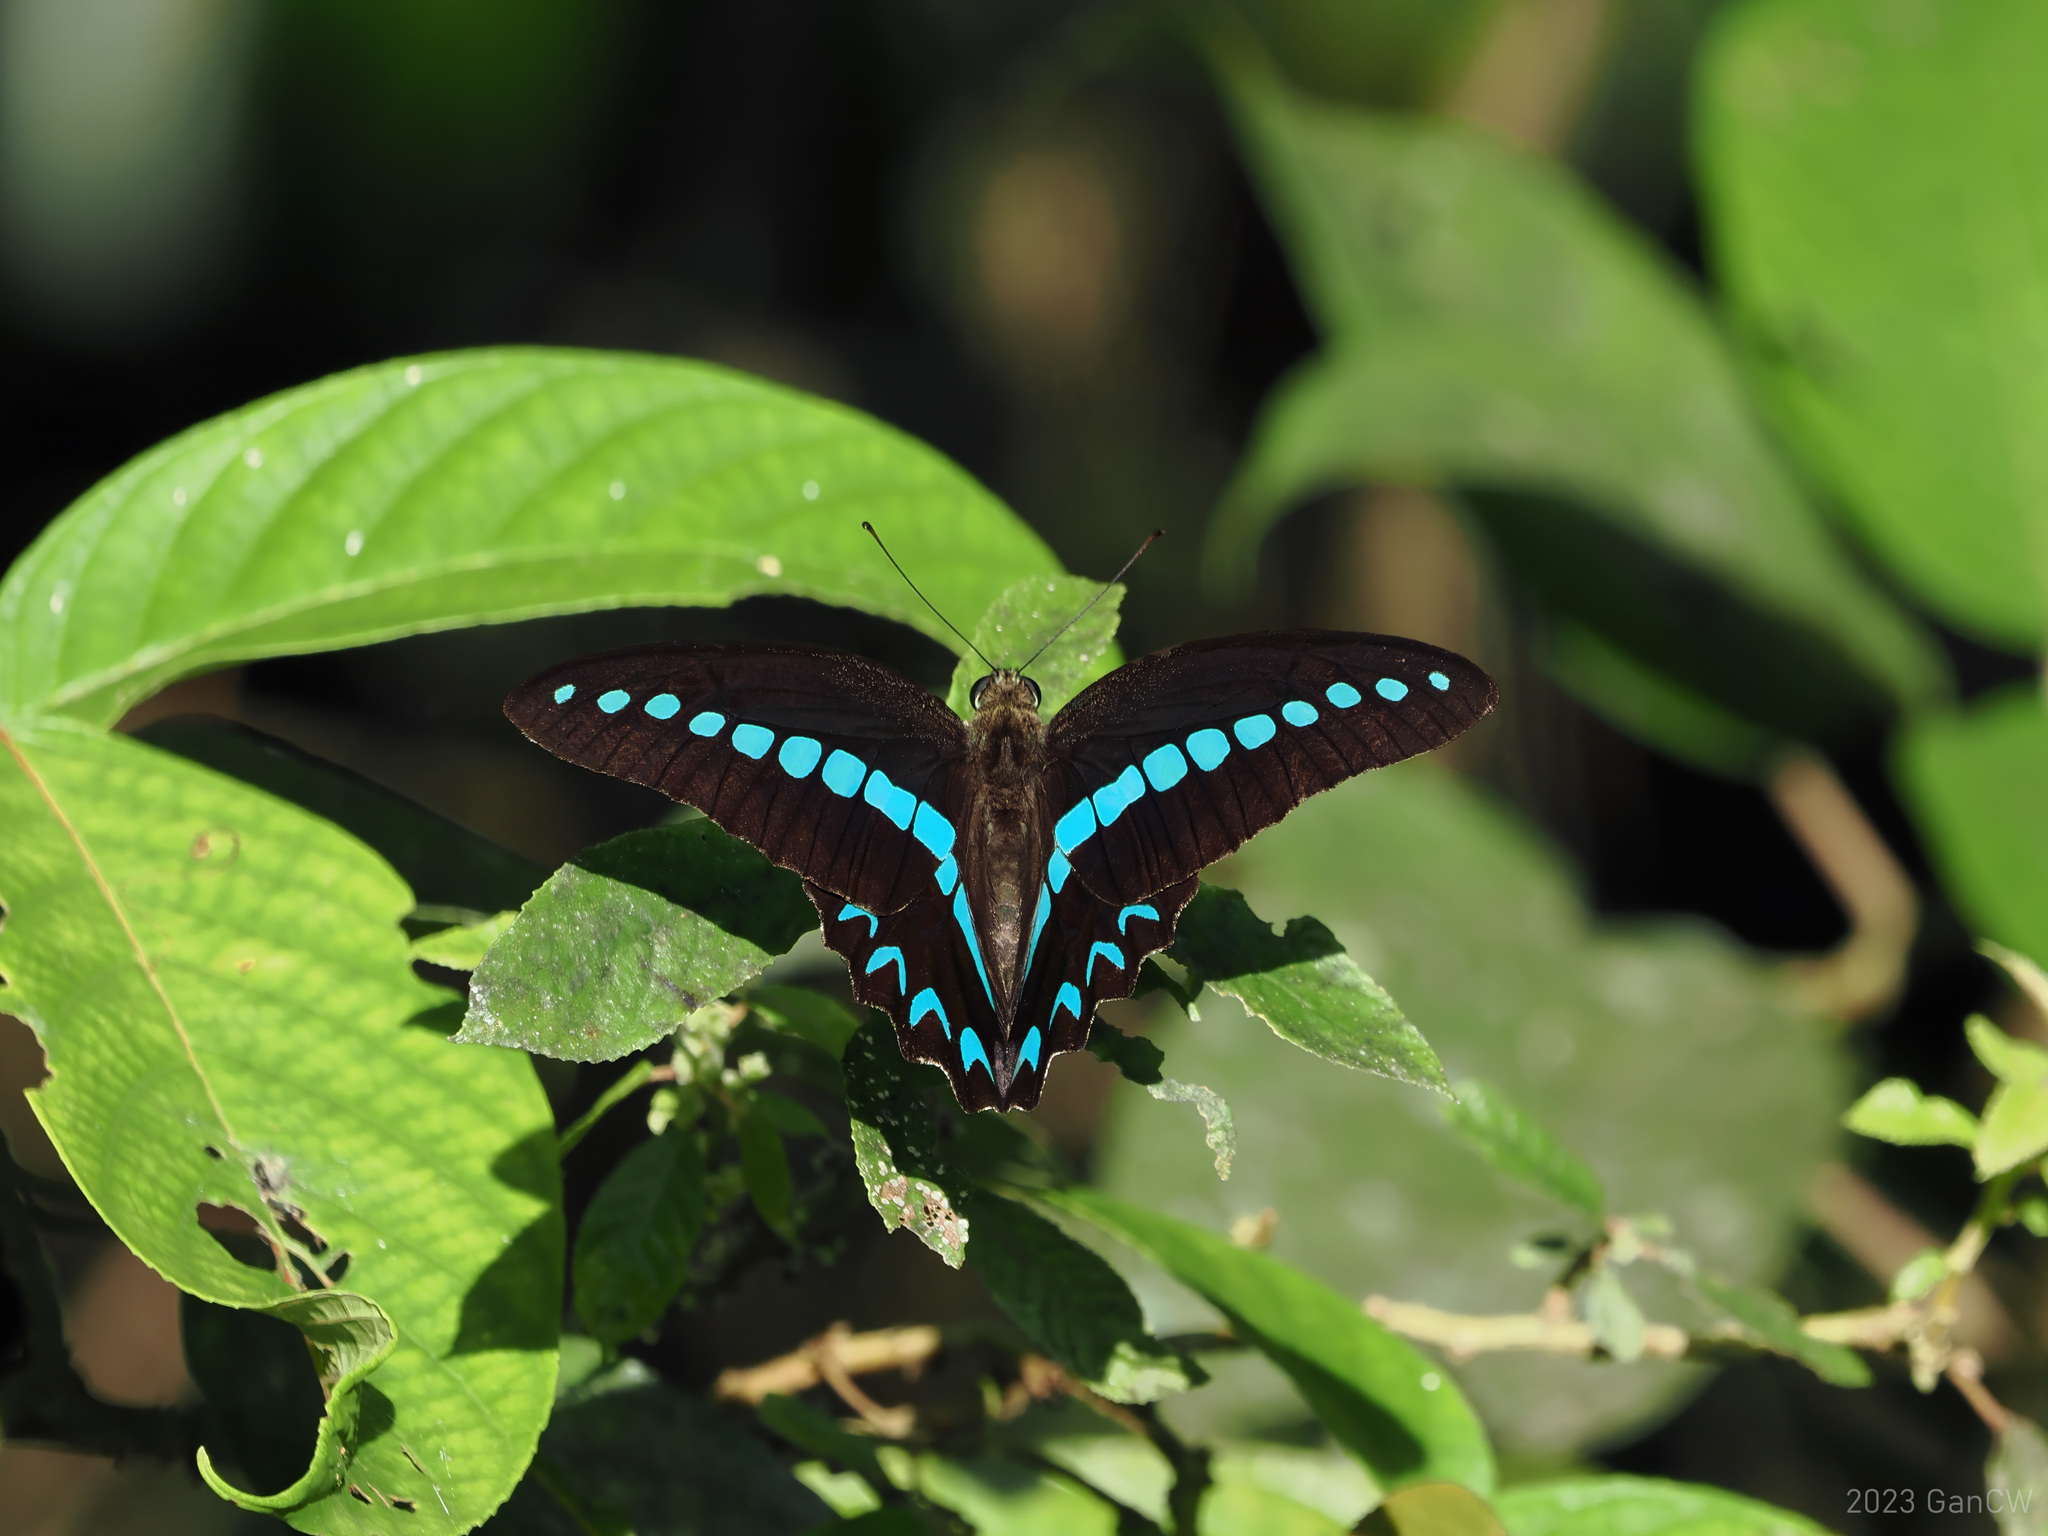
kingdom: Animalia
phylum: Arthropoda
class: Insecta
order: Lepidoptera
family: Papilionidae
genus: Graphium
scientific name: Graphium milon
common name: Milon's swallowtail
